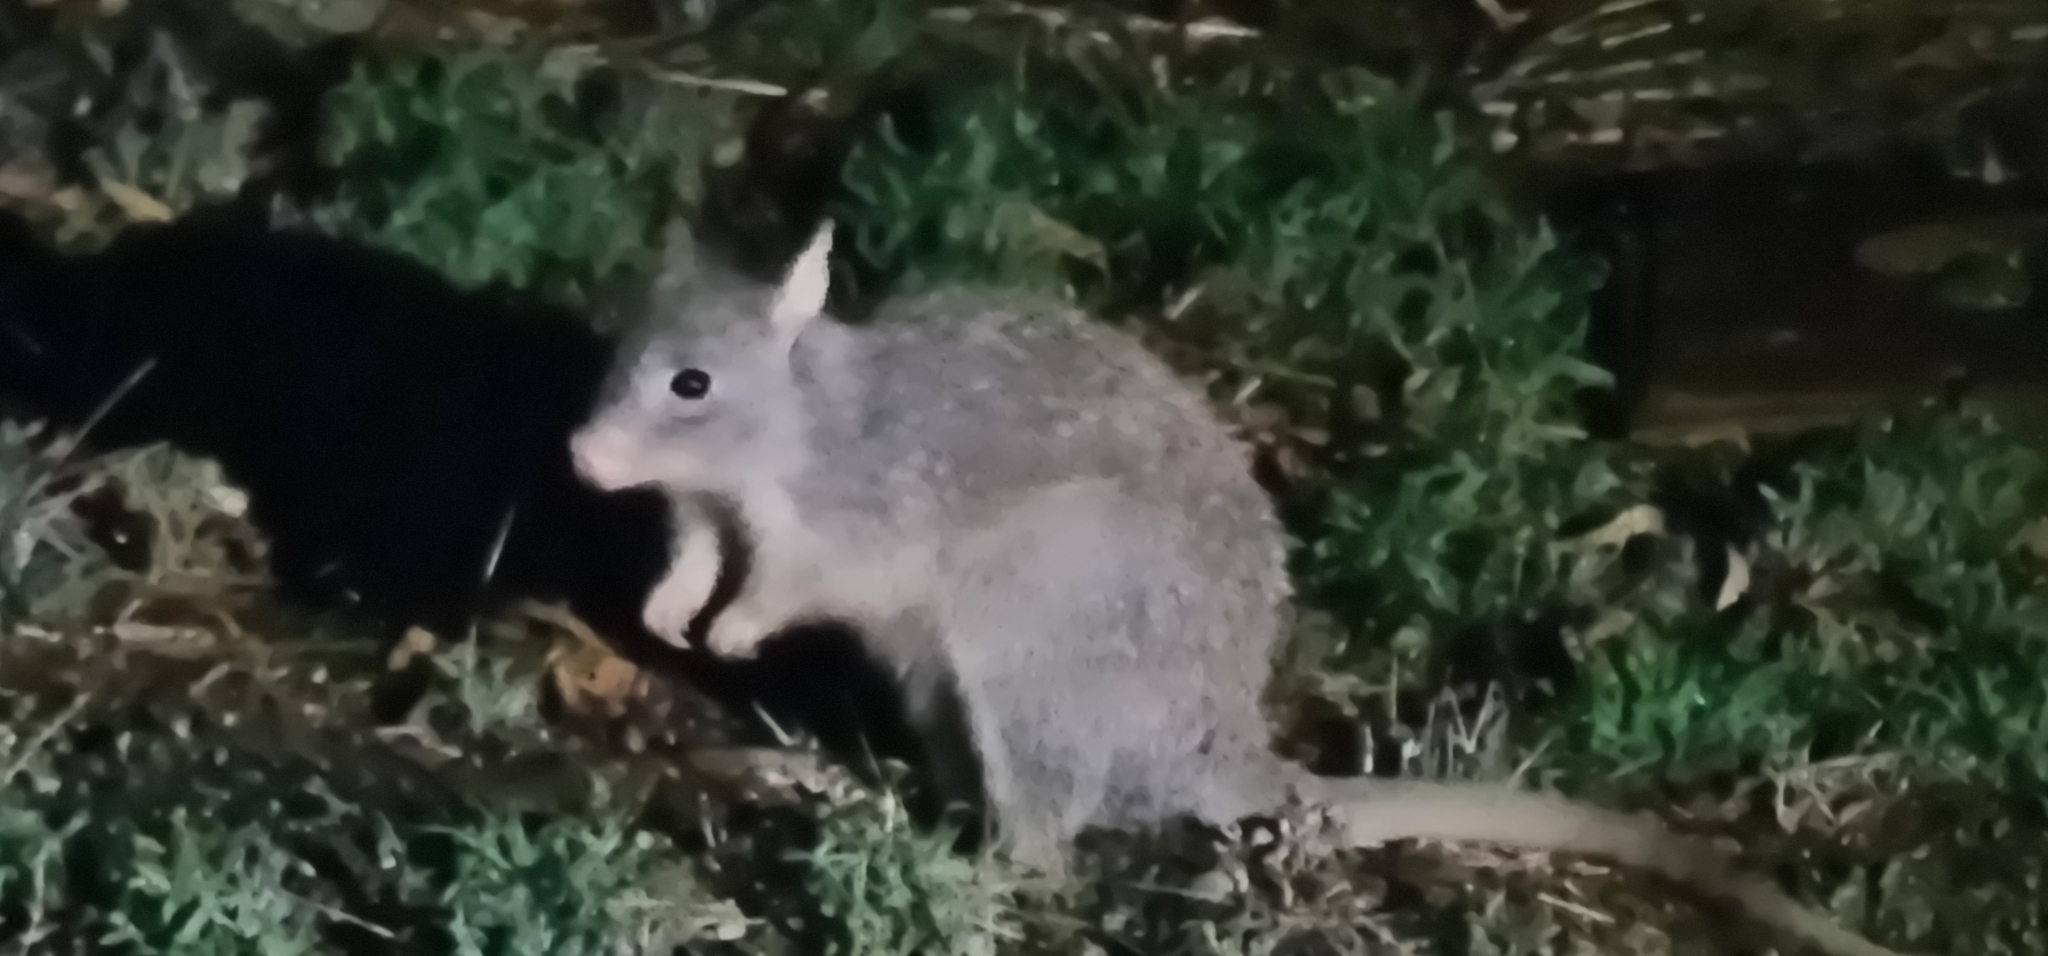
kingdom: Animalia
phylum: Chordata
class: Mammalia
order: Diprotodontia
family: Potoroidae
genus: Aepyprymnus
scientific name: Aepyprymnus rufescens
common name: Rufous rat-kangaroo
